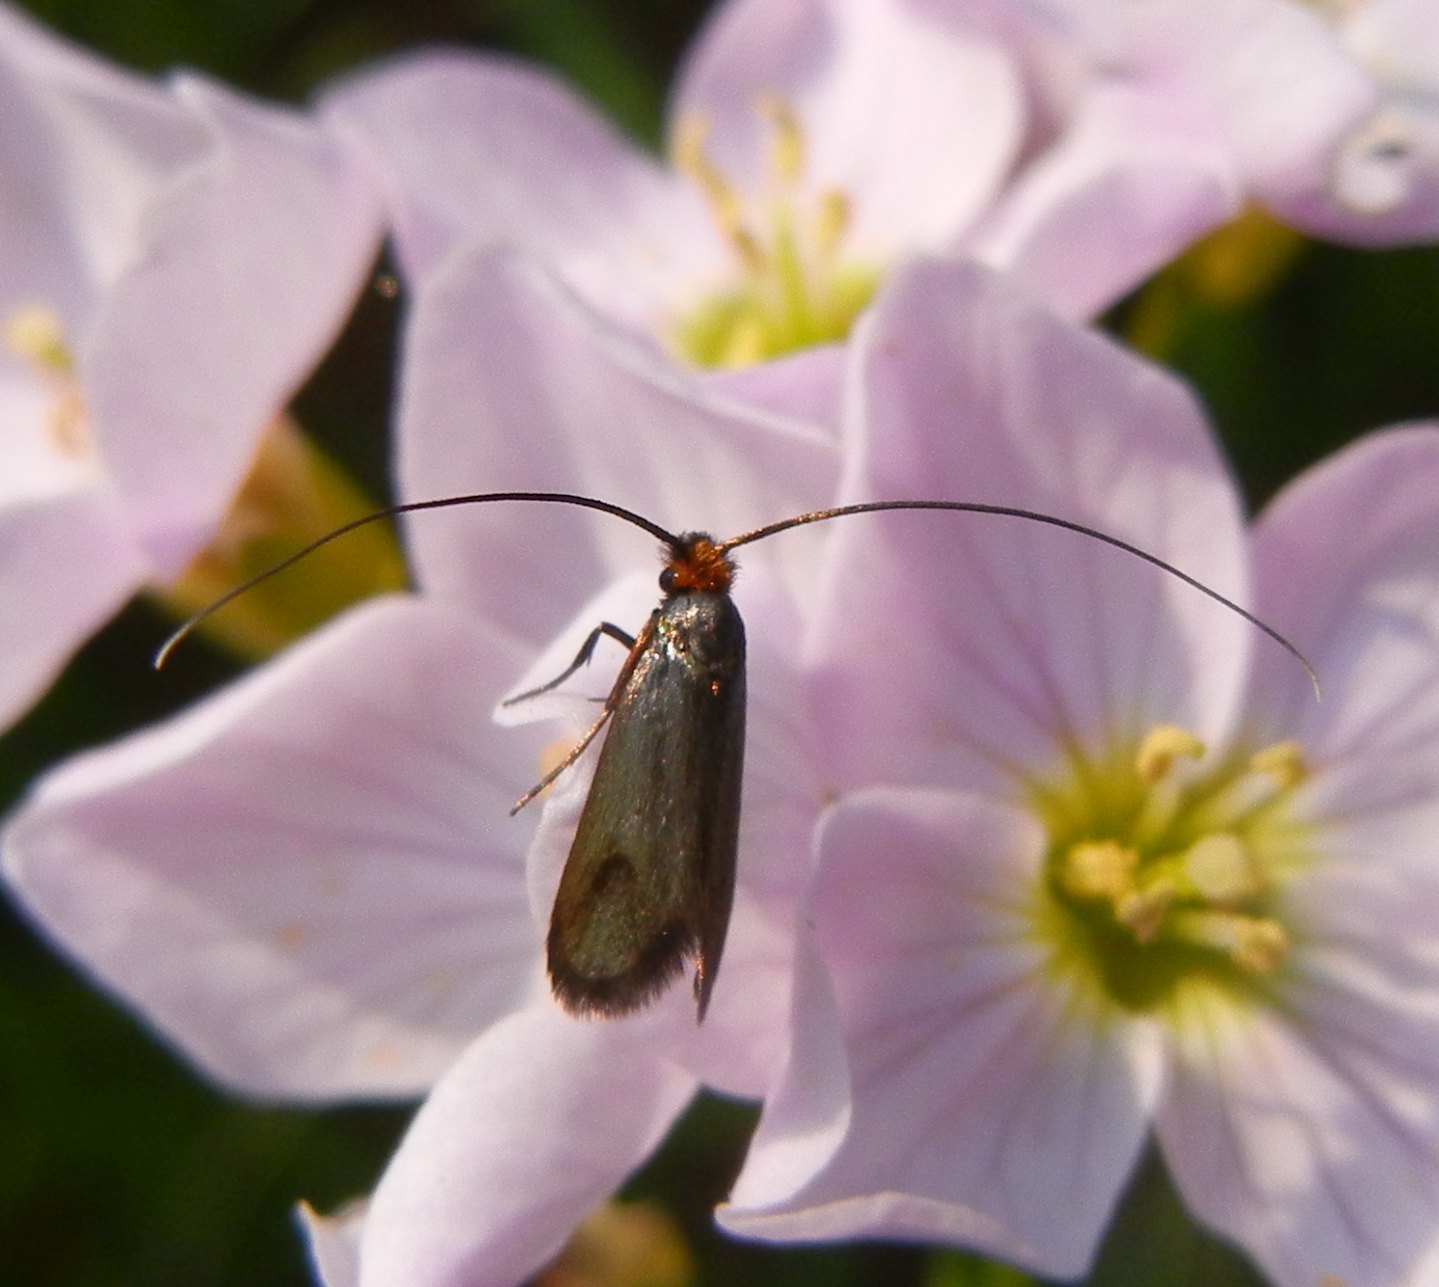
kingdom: Animalia
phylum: Arthropoda
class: Insecta
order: Lepidoptera
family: Adelidae
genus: Cauchas
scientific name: Cauchas rufimitrella
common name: Meadow long-horn
